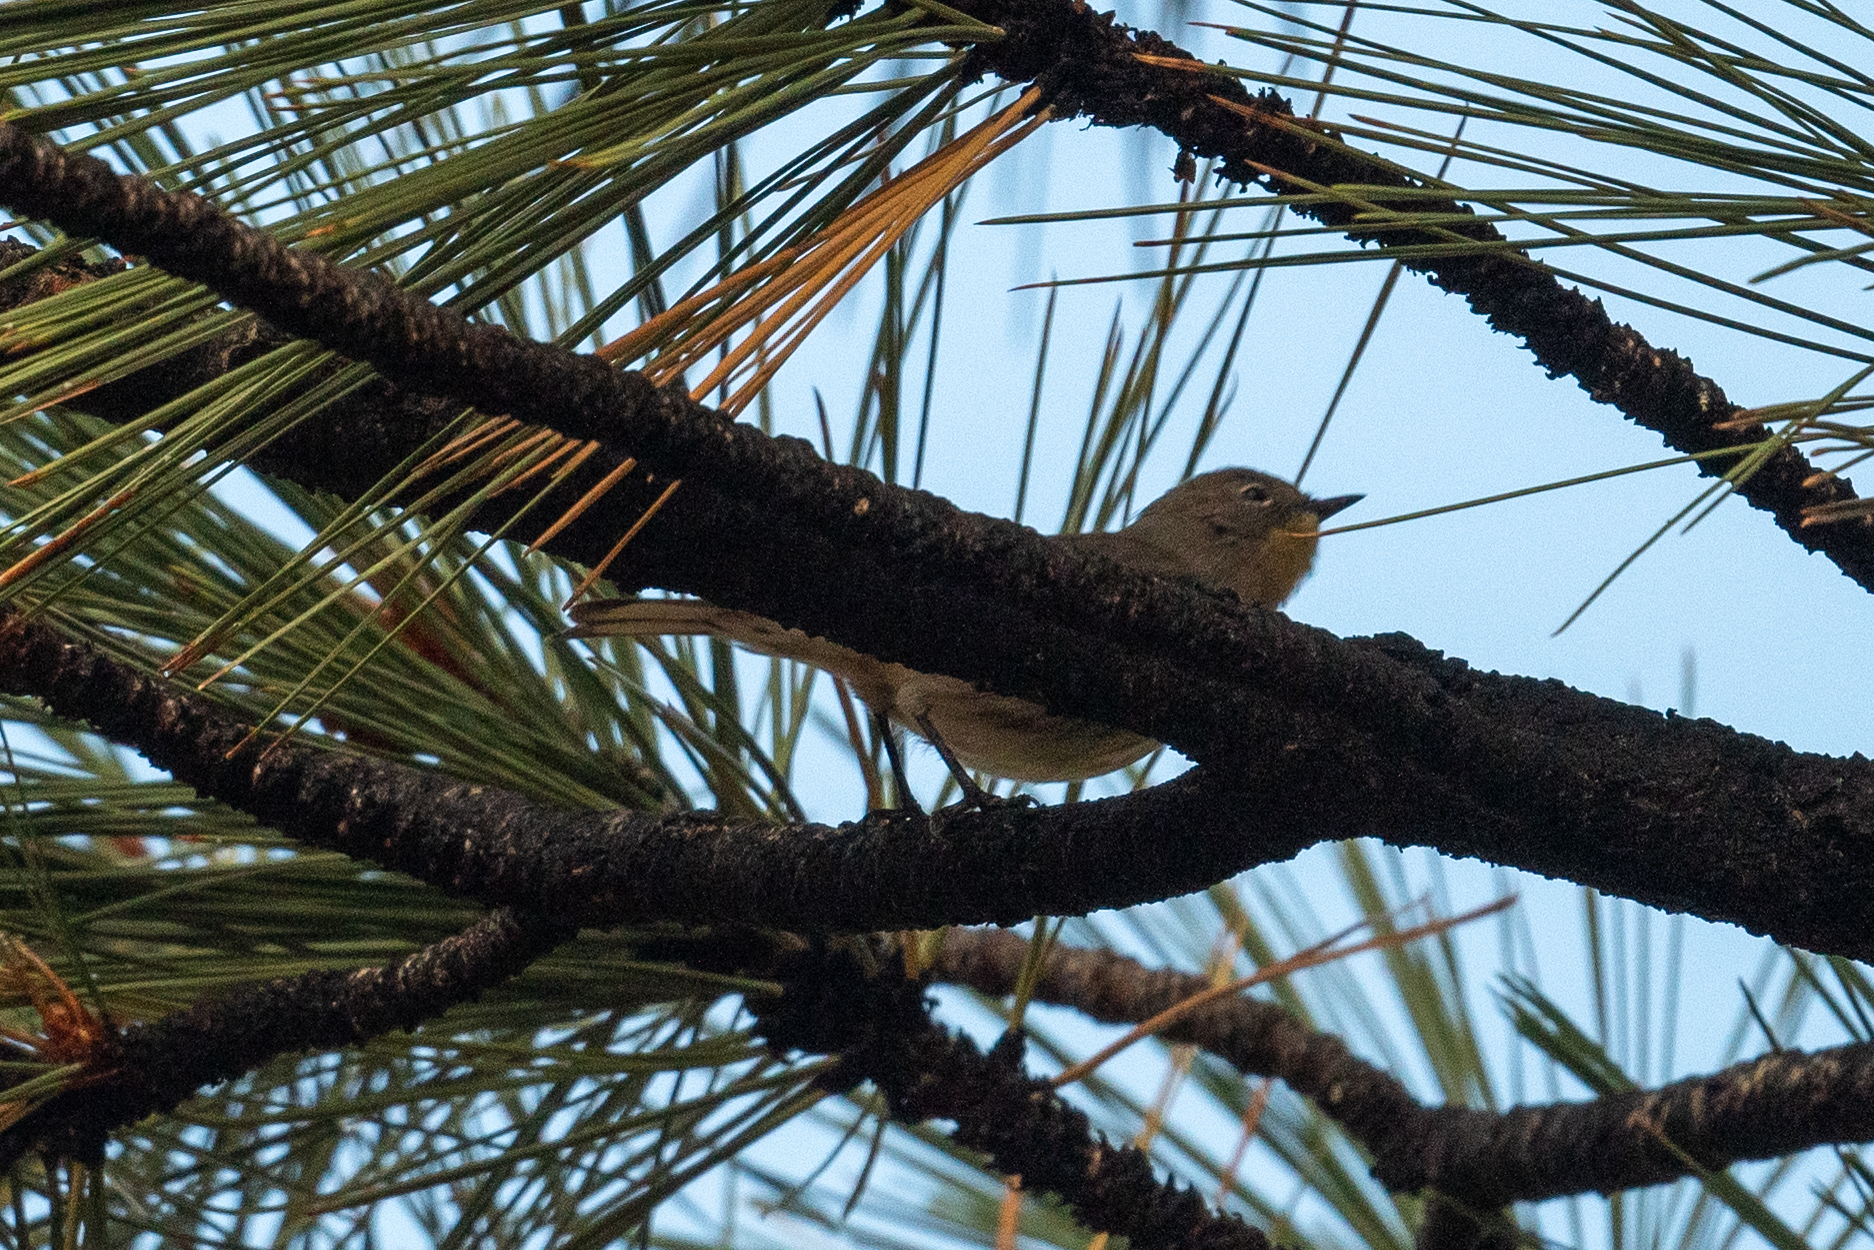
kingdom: Animalia
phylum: Chordata
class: Aves
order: Passeriformes
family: Parulidae
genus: Setophaga
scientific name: Setophaga coronata
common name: Myrtle warbler
